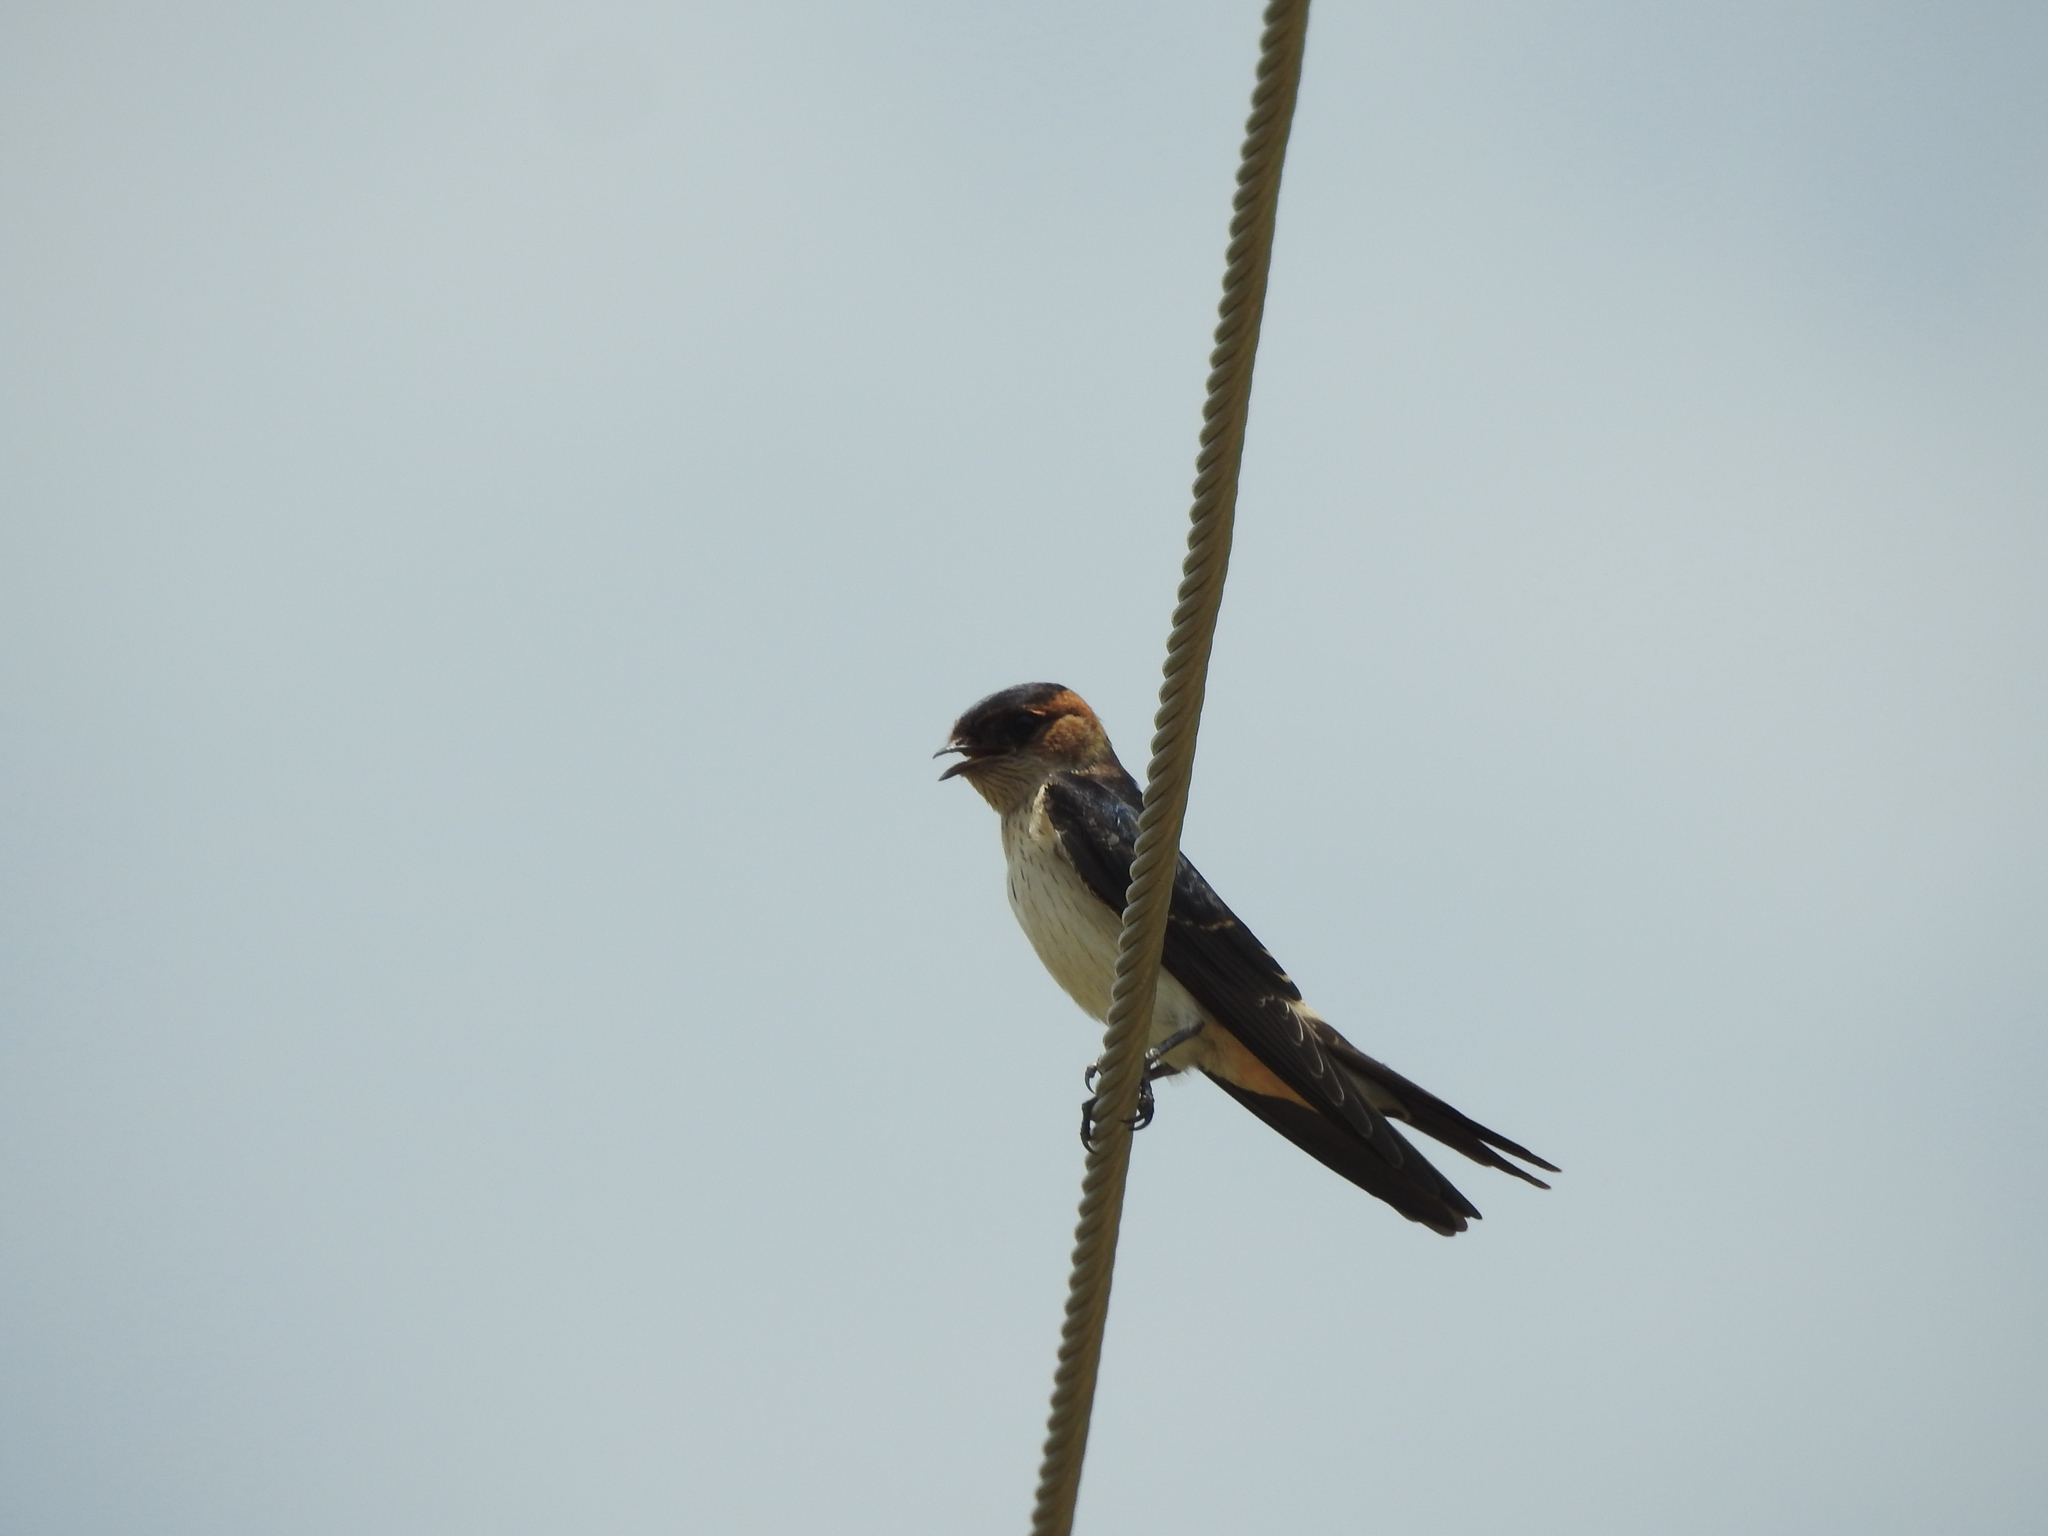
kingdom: Animalia
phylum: Chordata
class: Aves
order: Passeriformes
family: Hirundinidae
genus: Cecropis
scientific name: Cecropis daurica
